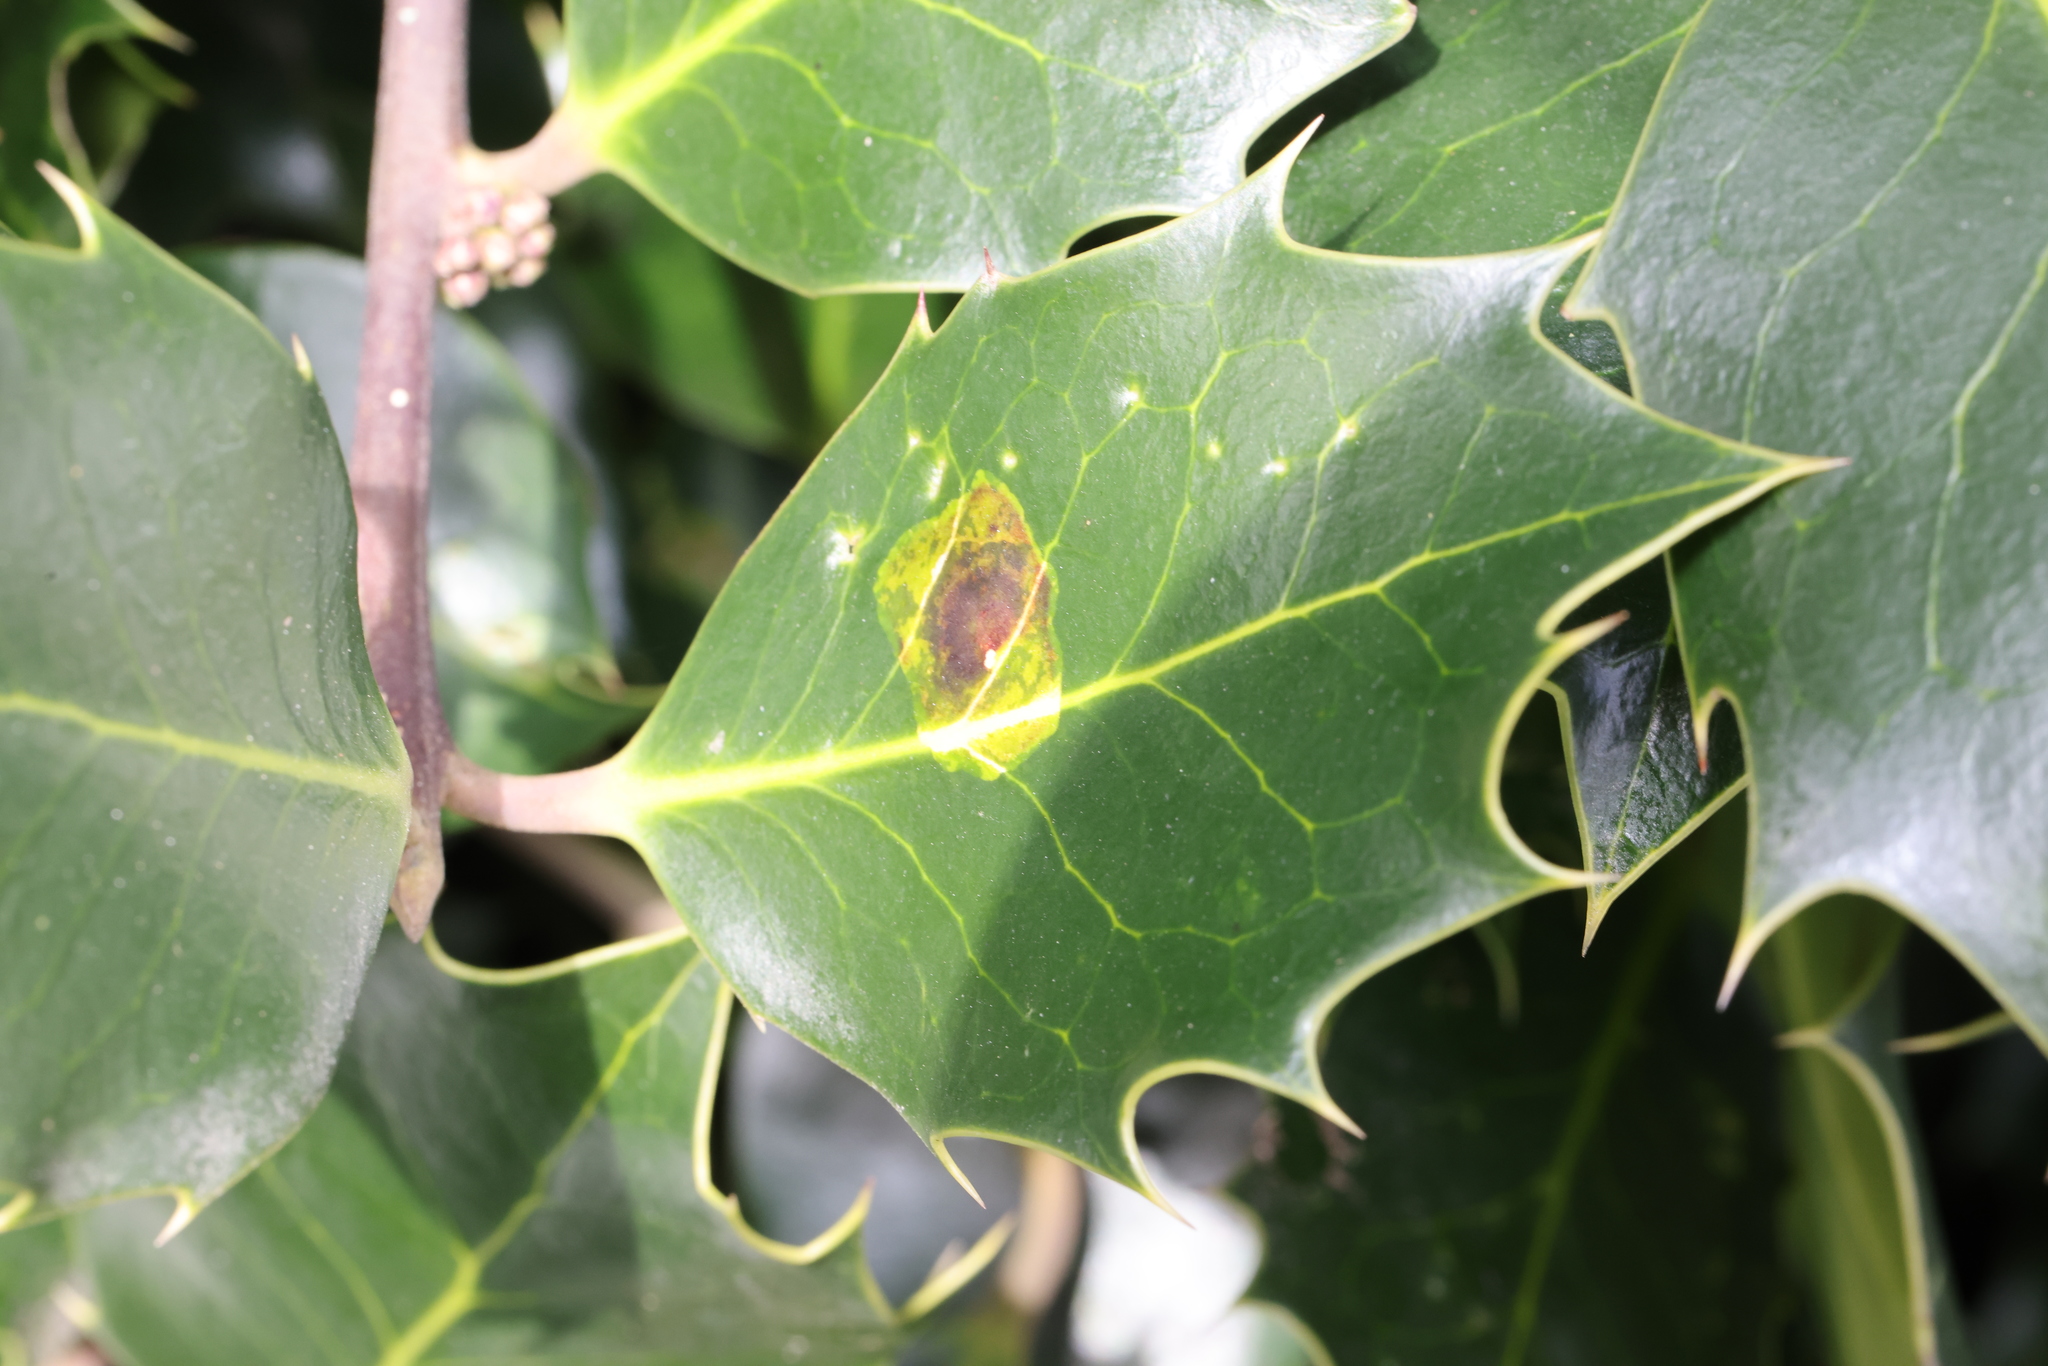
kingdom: Animalia
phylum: Arthropoda
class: Insecta
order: Diptera
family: Agromyzidae
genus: Phytomyza
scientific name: Phytomyza ilicis
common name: Holly leafminer
